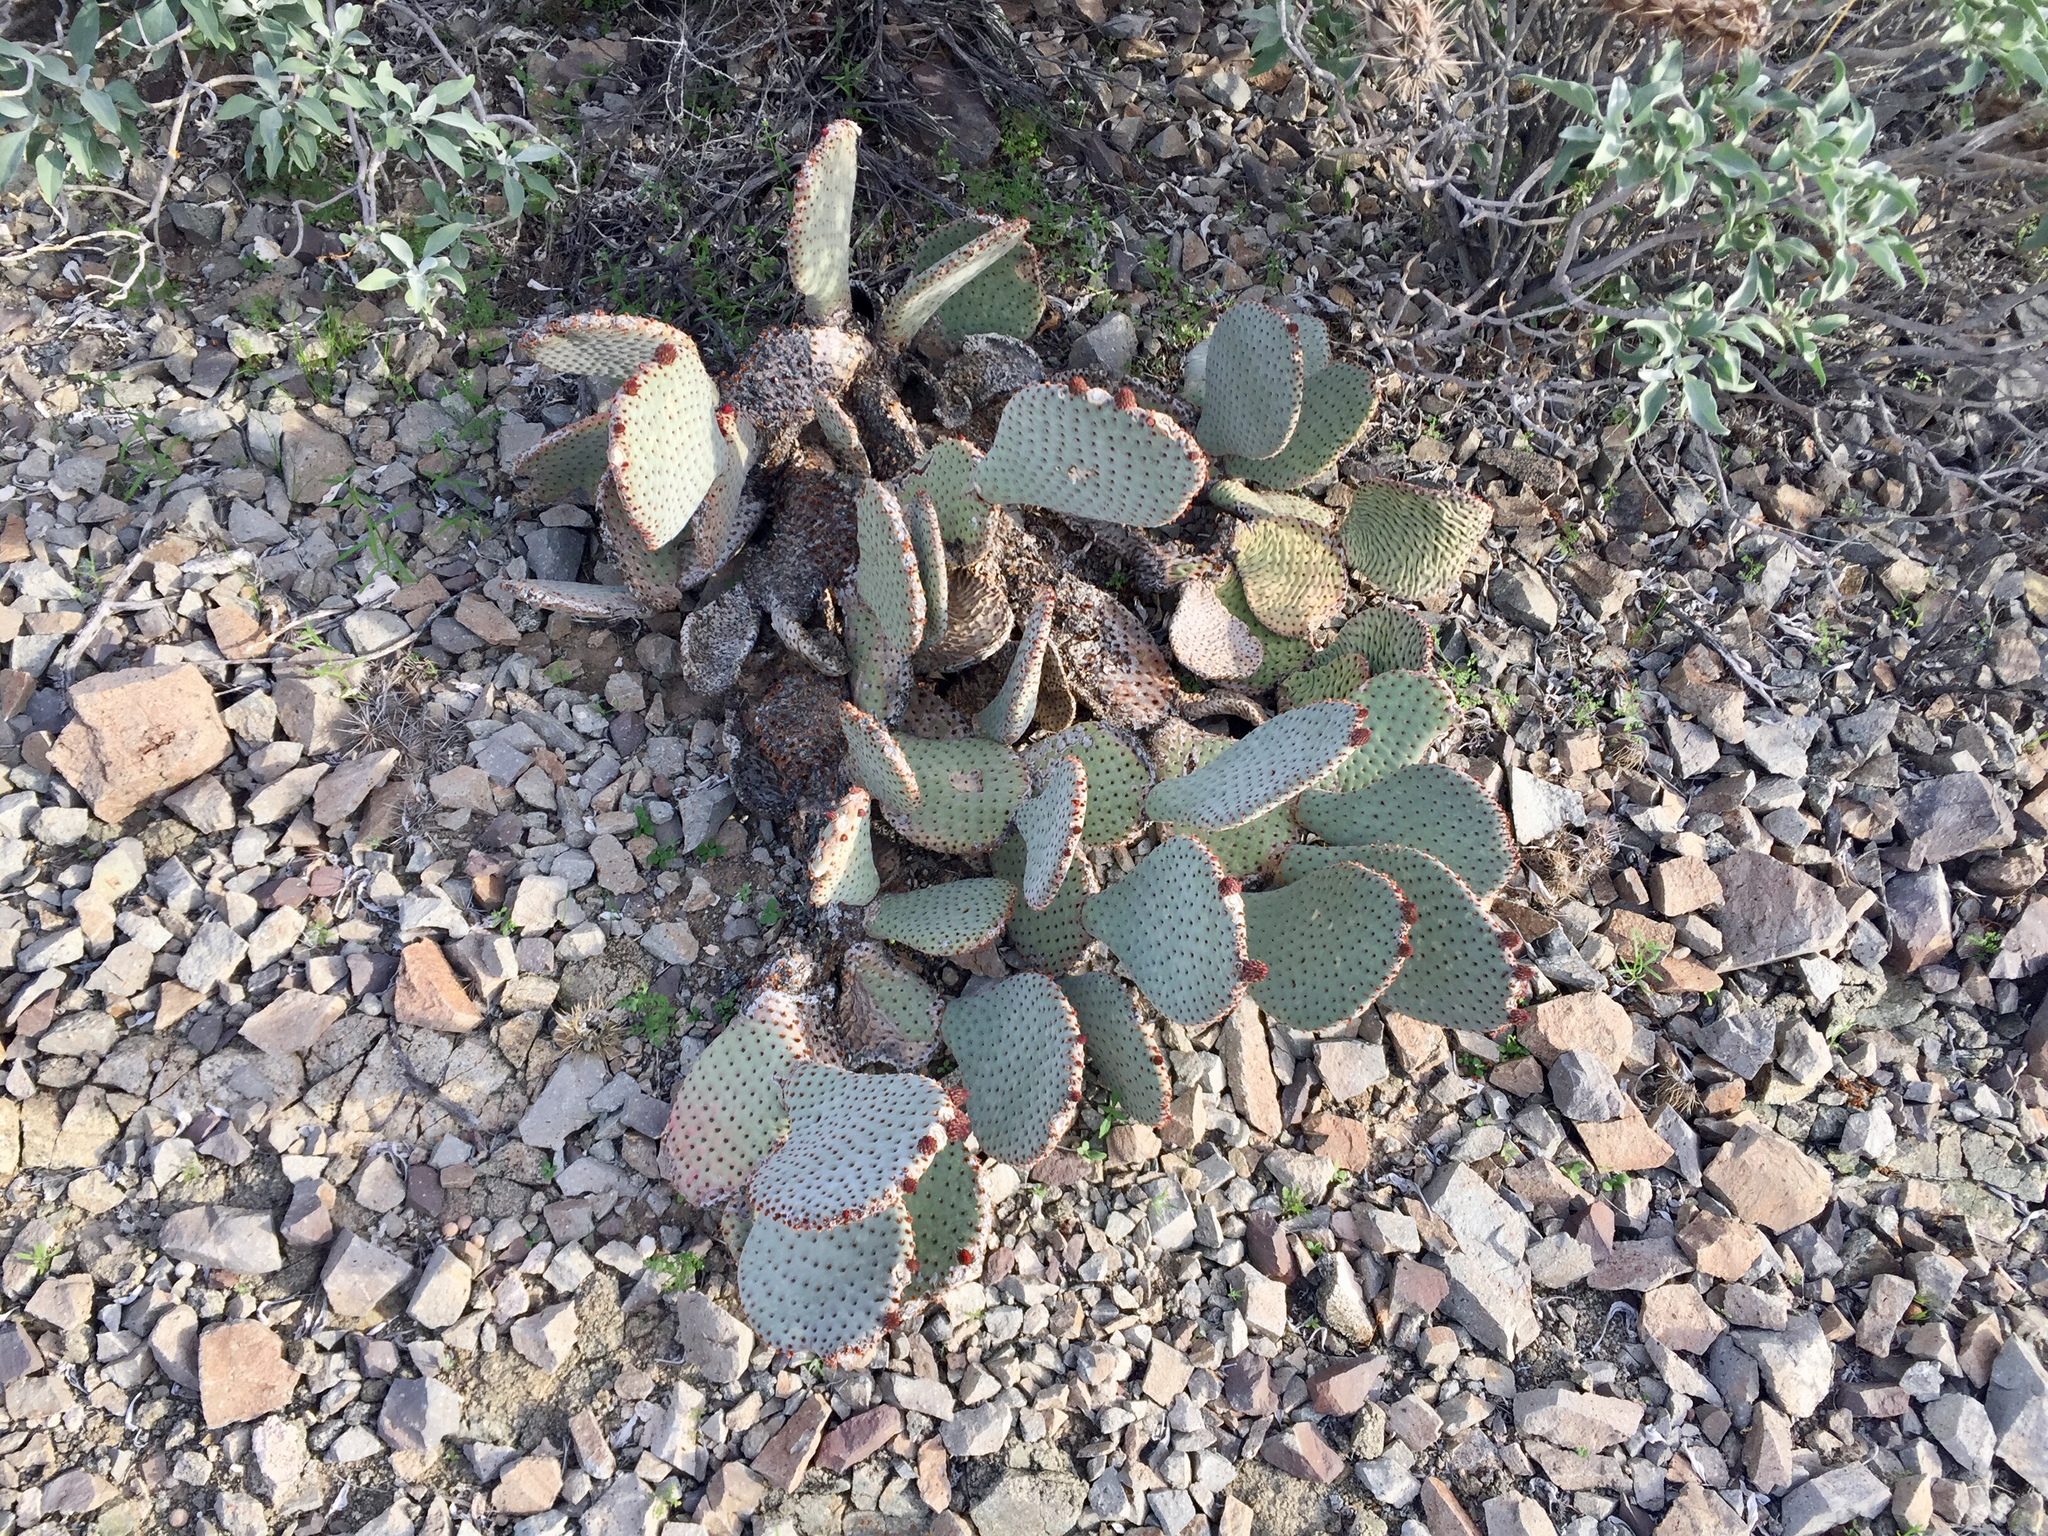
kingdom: Plantae
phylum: Tracheophyta
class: Magnoliopsida
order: Caryophyllales
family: Cactaceae
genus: Opuntia
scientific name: Opuntia basilaris
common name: Beavertail prickly-pear
